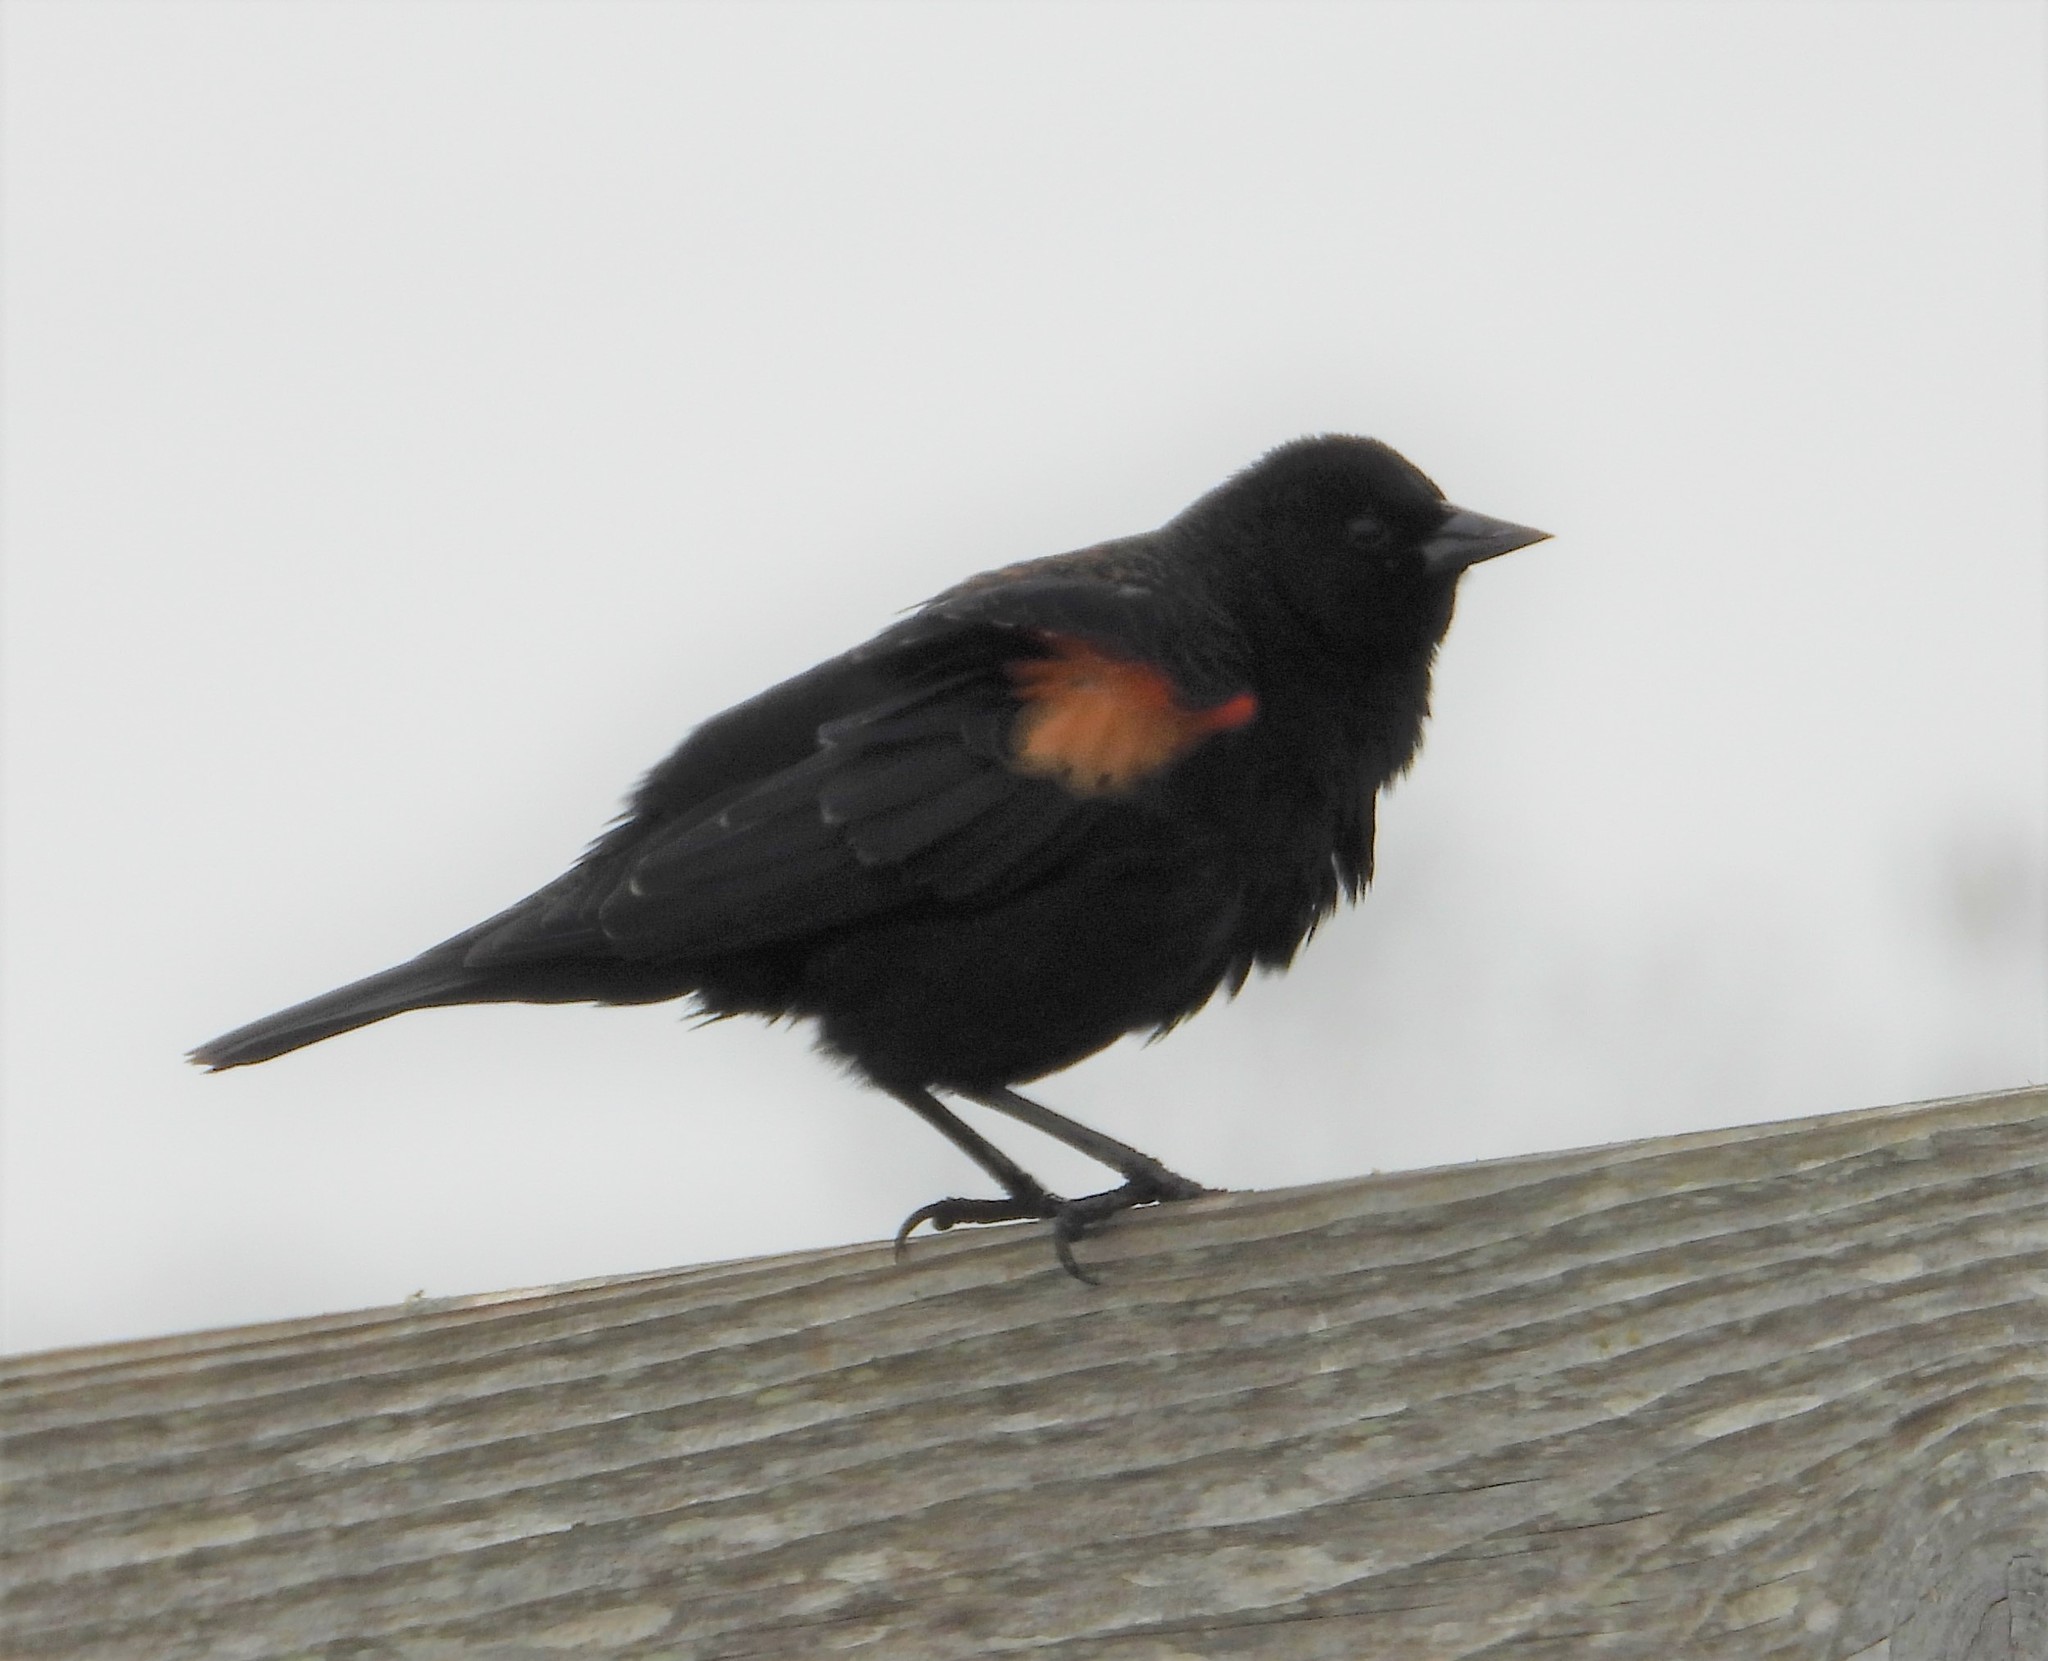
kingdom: Animalia
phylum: Chordata
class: Aves
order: Passeriformes
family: Icteridae
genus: Agelaius
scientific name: Agelaius phoeniceus
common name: Red-winged blackbird
